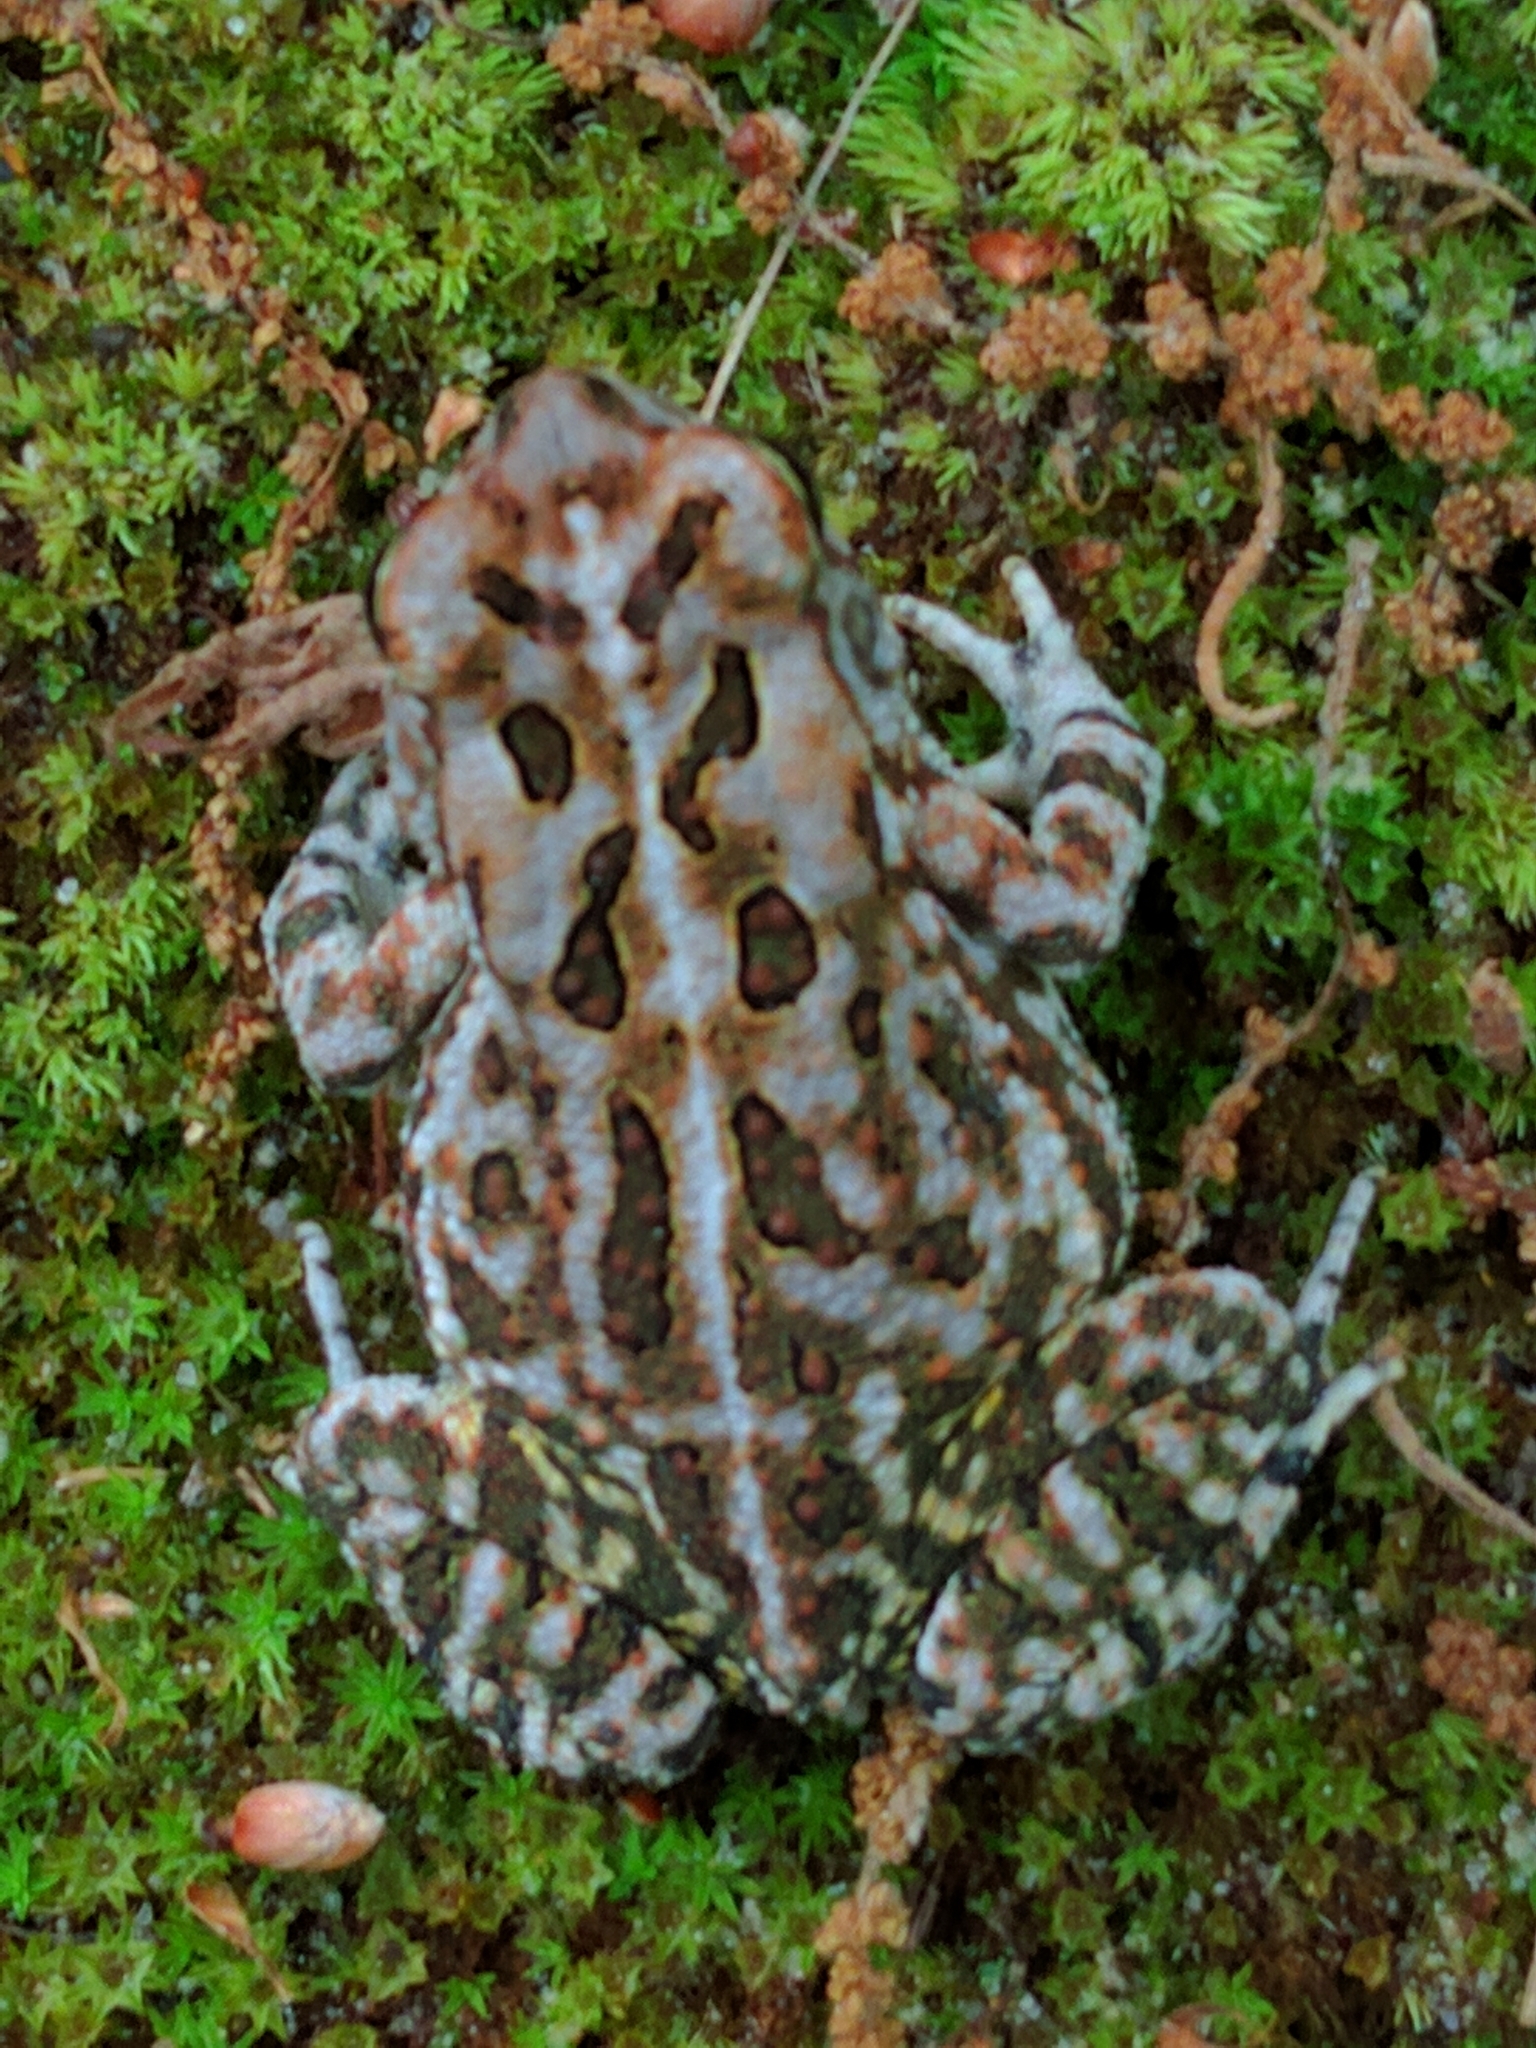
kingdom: Animalia
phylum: Chordata
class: Amphibia
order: Anura
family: Bufonidae
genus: Anaxyrus
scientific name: Anaxyrus fowleri
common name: Fowler's toad
